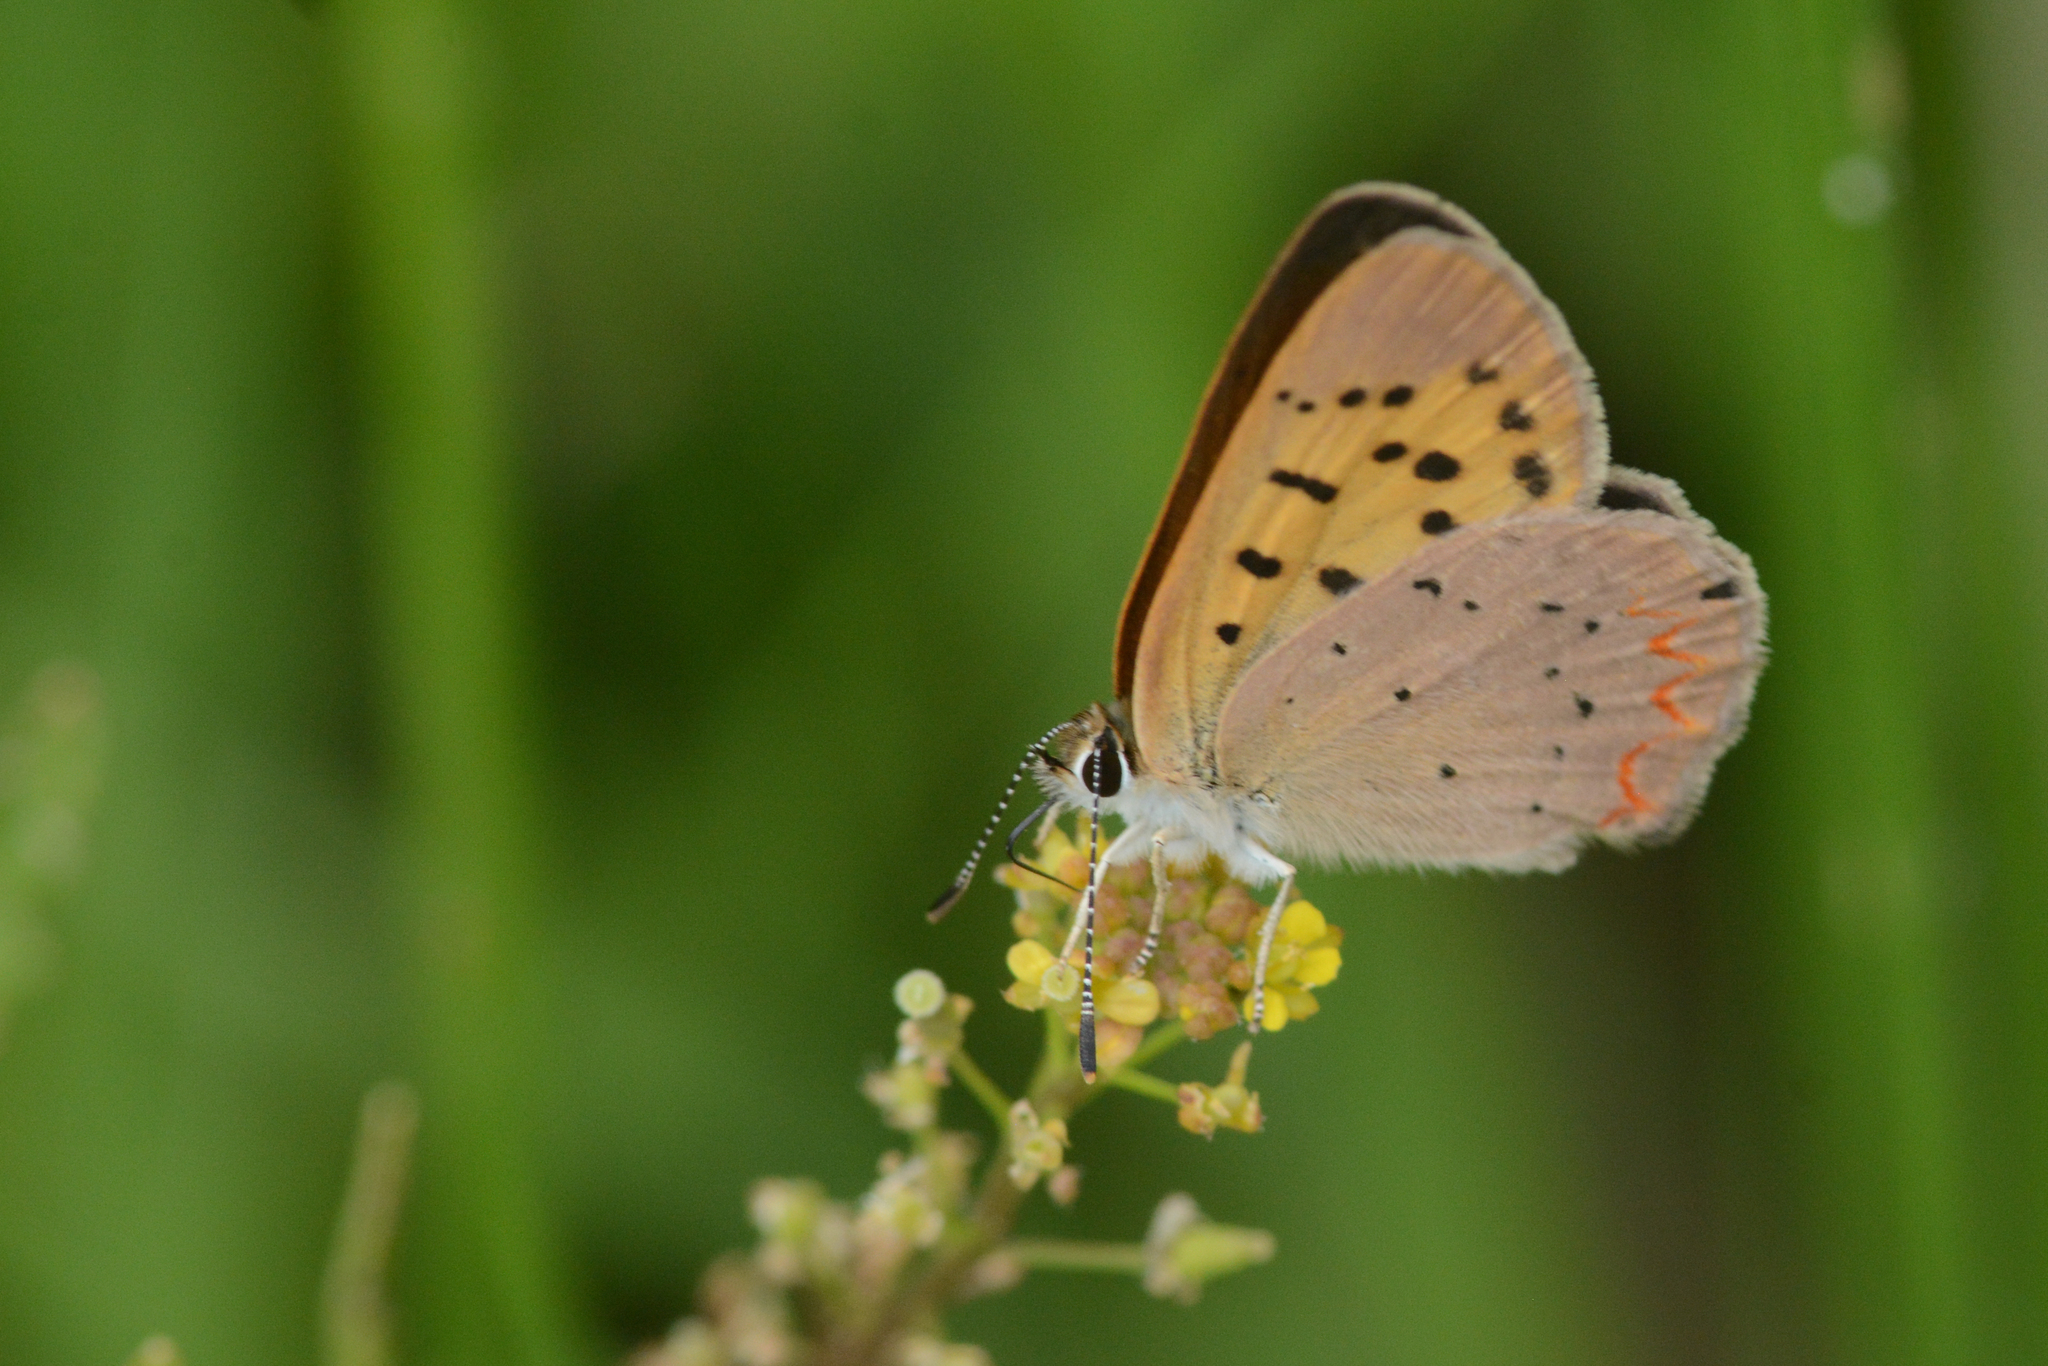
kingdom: Animalia
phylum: Arthropoda
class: Insecta
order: Lepidoptera
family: Lycaenidae
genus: Tharsalea
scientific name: Tharsalea helloides
